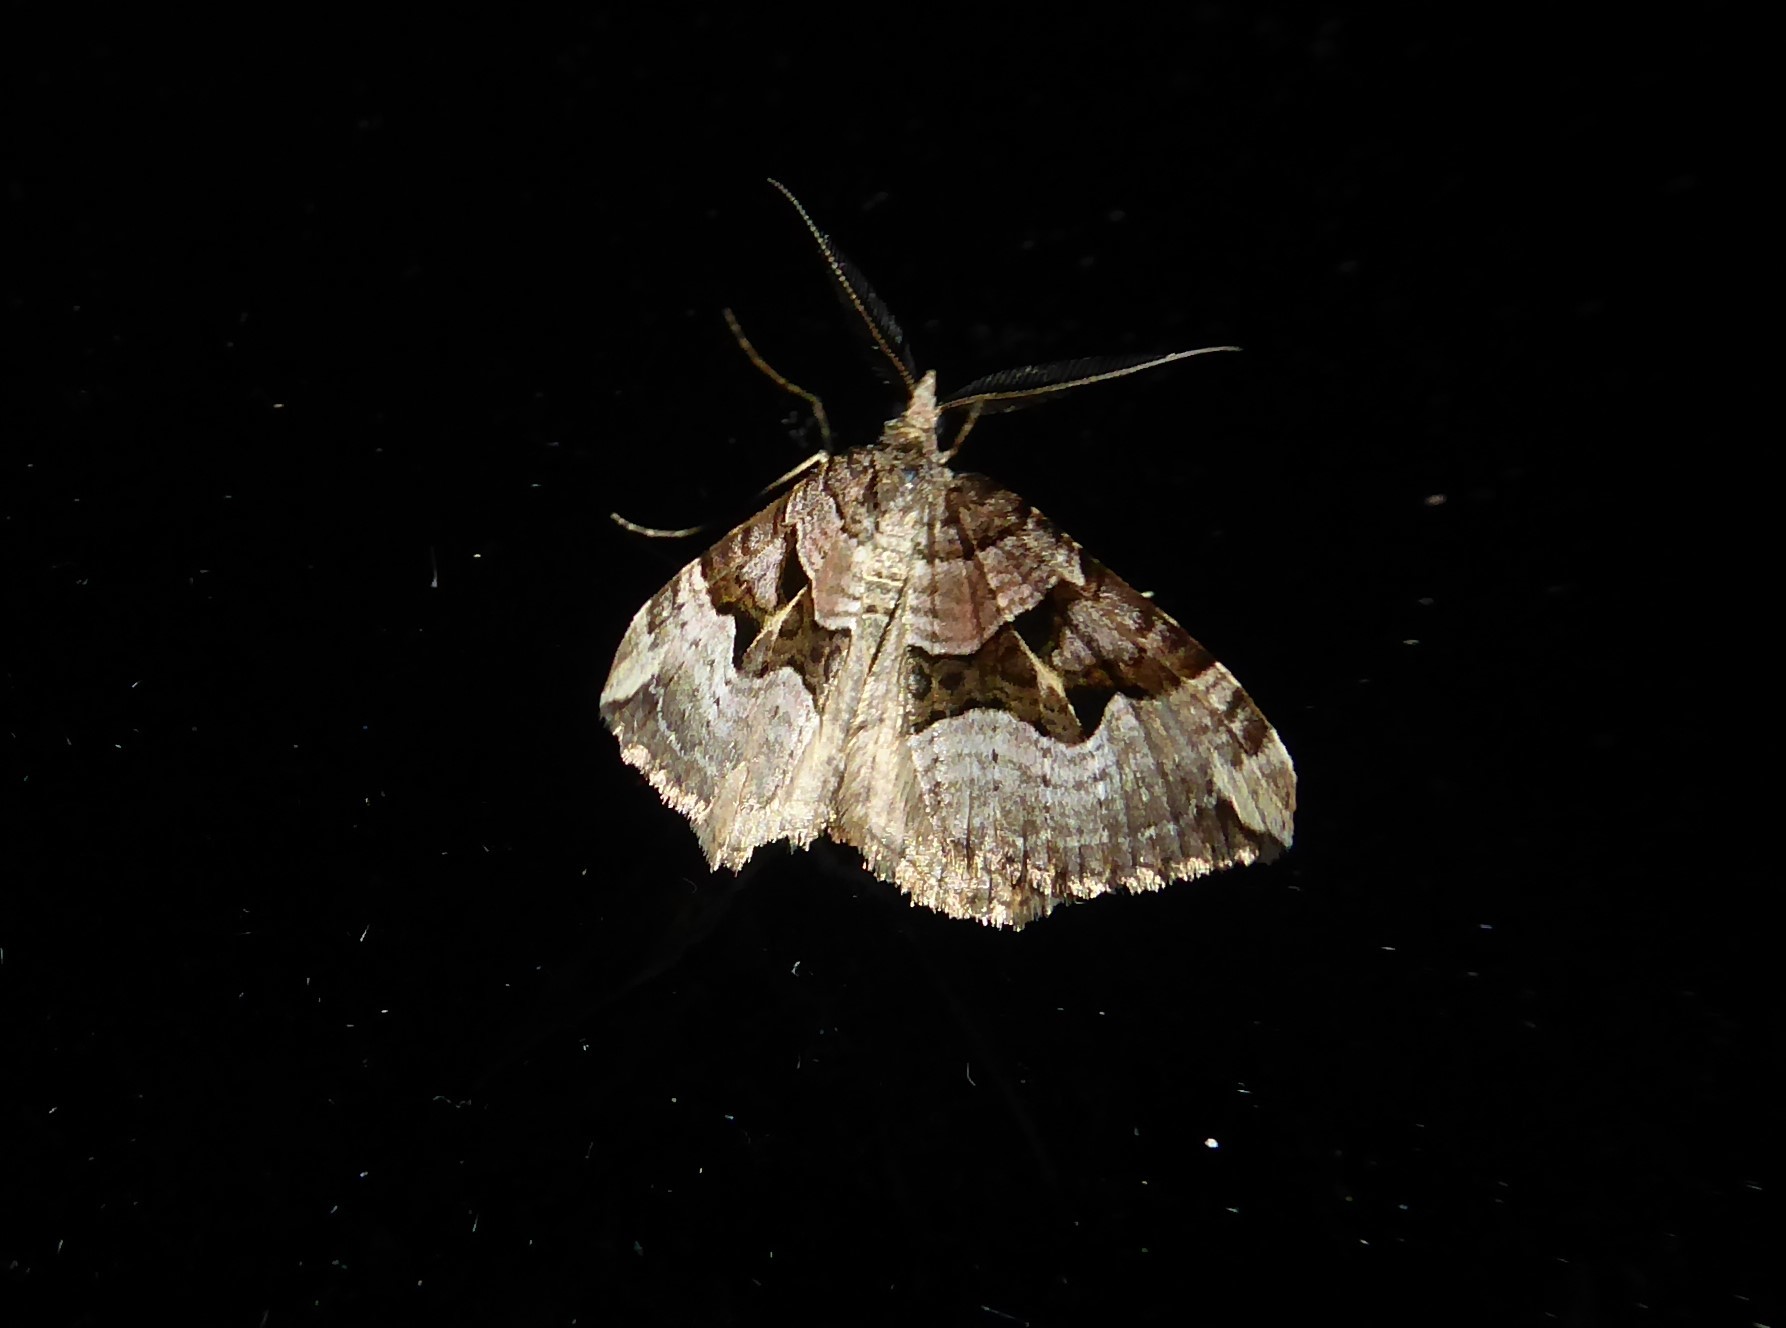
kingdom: Animalia
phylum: Arthropoda
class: Insecta
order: Lepidoptera
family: Geometridae
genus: Xanthorhoe
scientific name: Xanthorhoe semifissata
